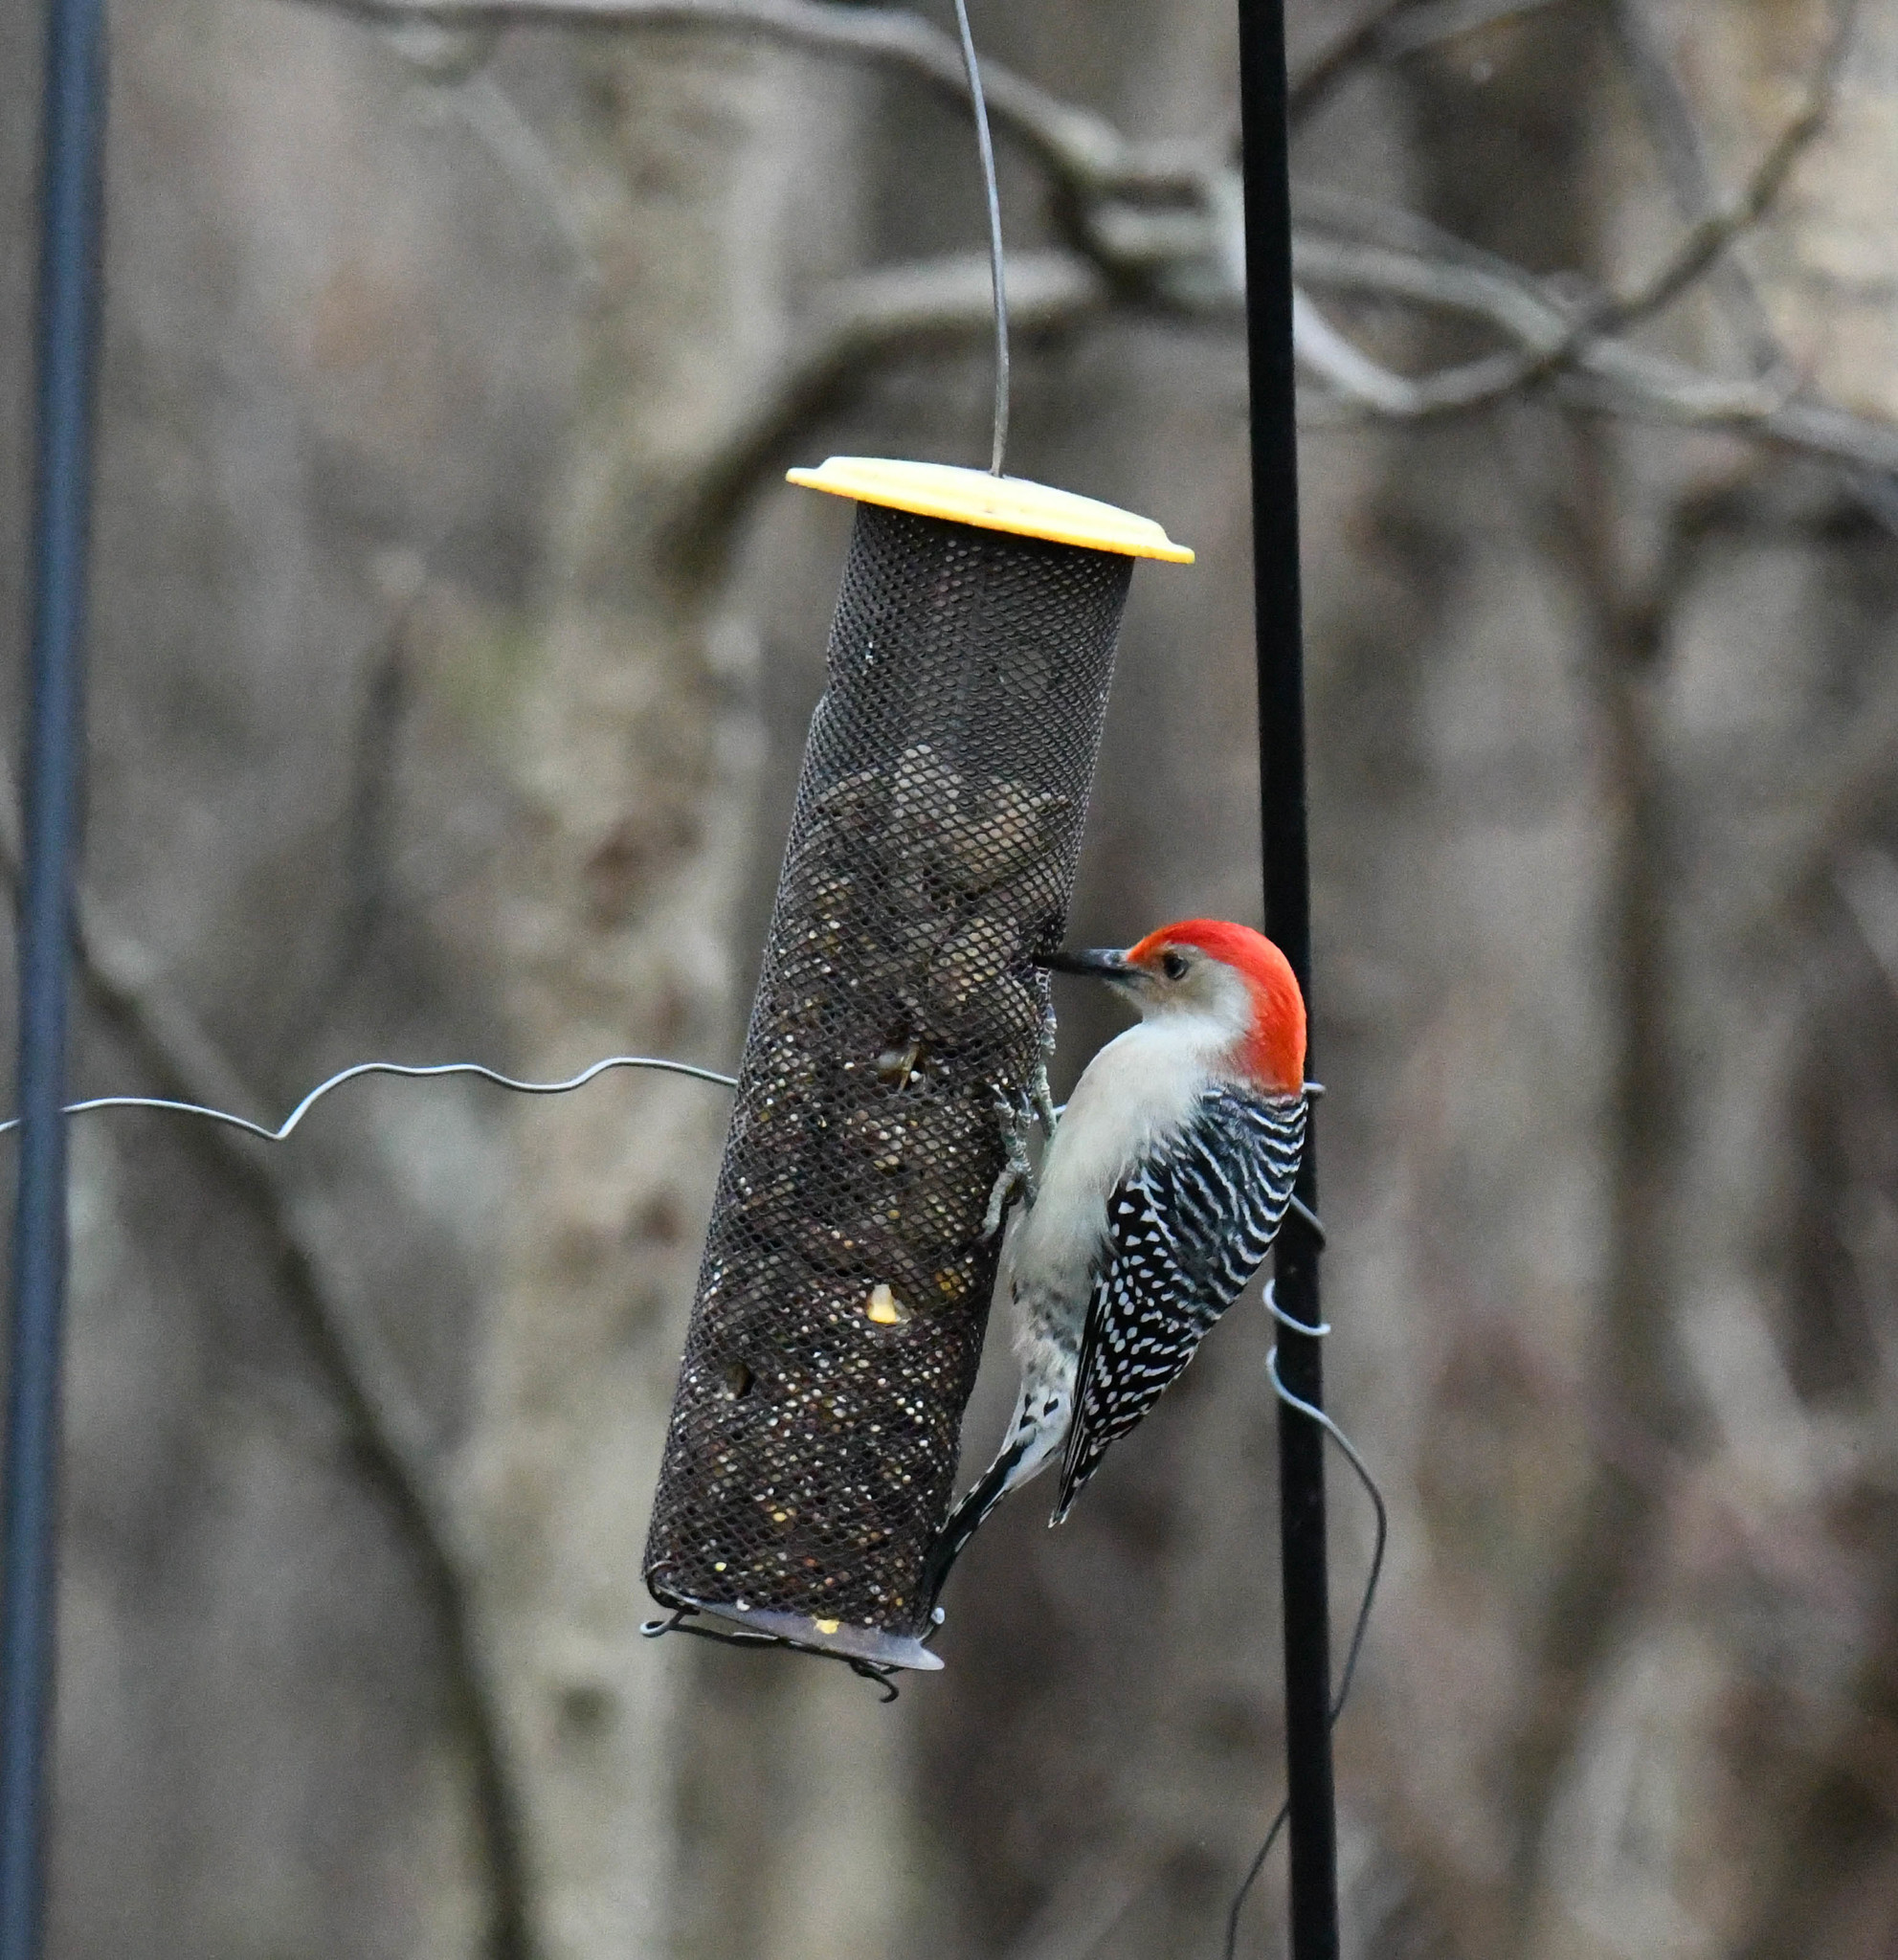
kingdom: Animalia
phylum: Chordata
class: Aves
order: Piciformes
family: Picidae
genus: Melanerpes
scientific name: Melanerpes carolinus
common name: Red-bellied woodpecker
